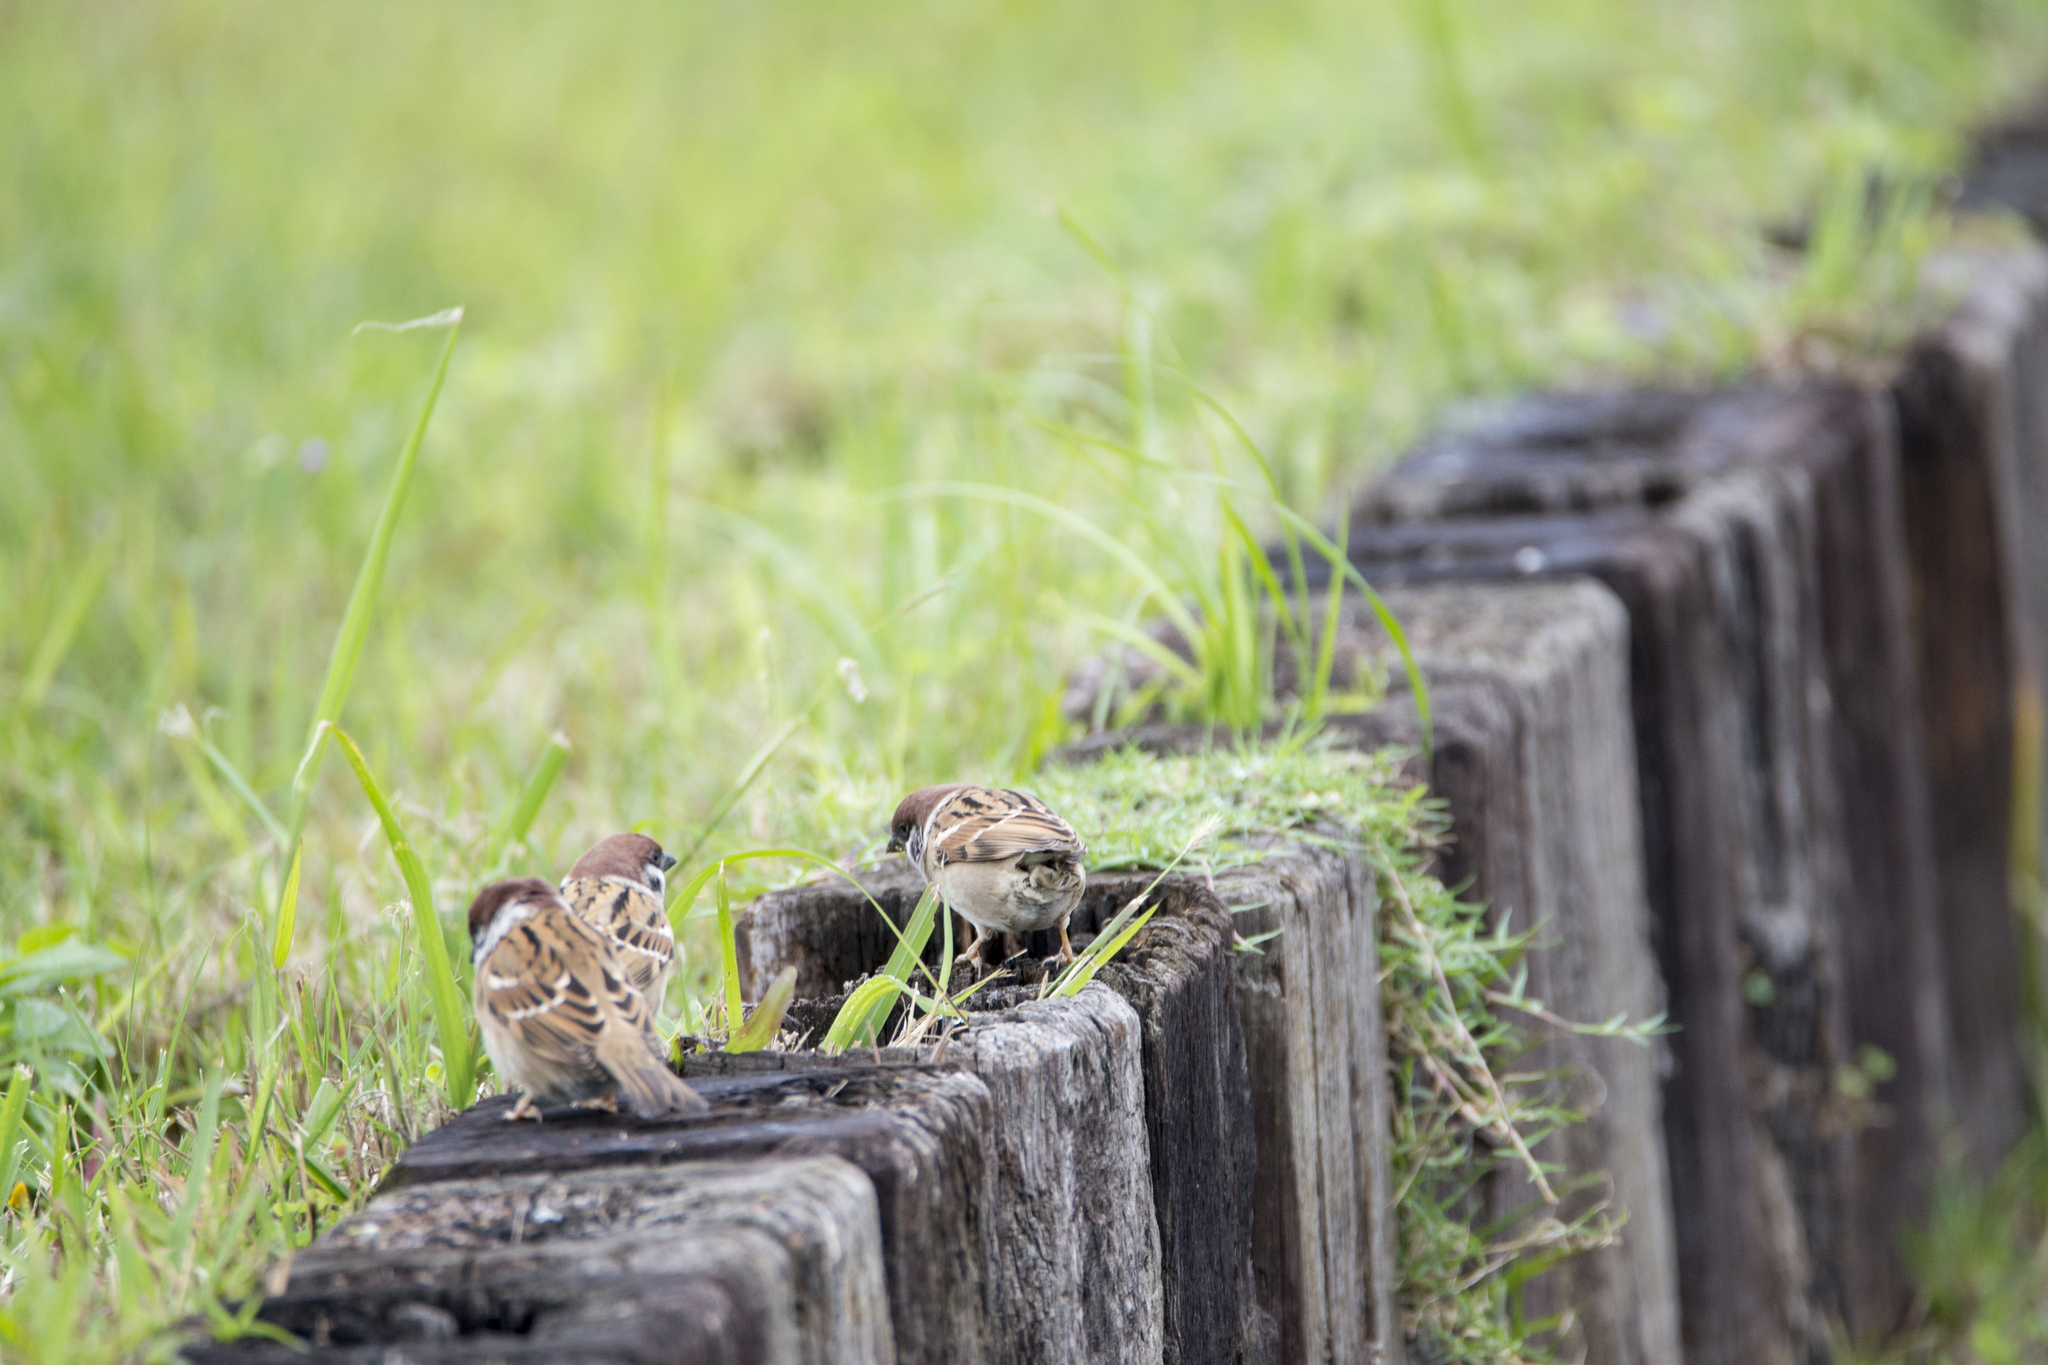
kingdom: Animalia
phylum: Chordata
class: Aves
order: Passeriformes
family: Passeridae
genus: Passer
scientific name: Passer montanus
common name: Eurasian tree sparrow
